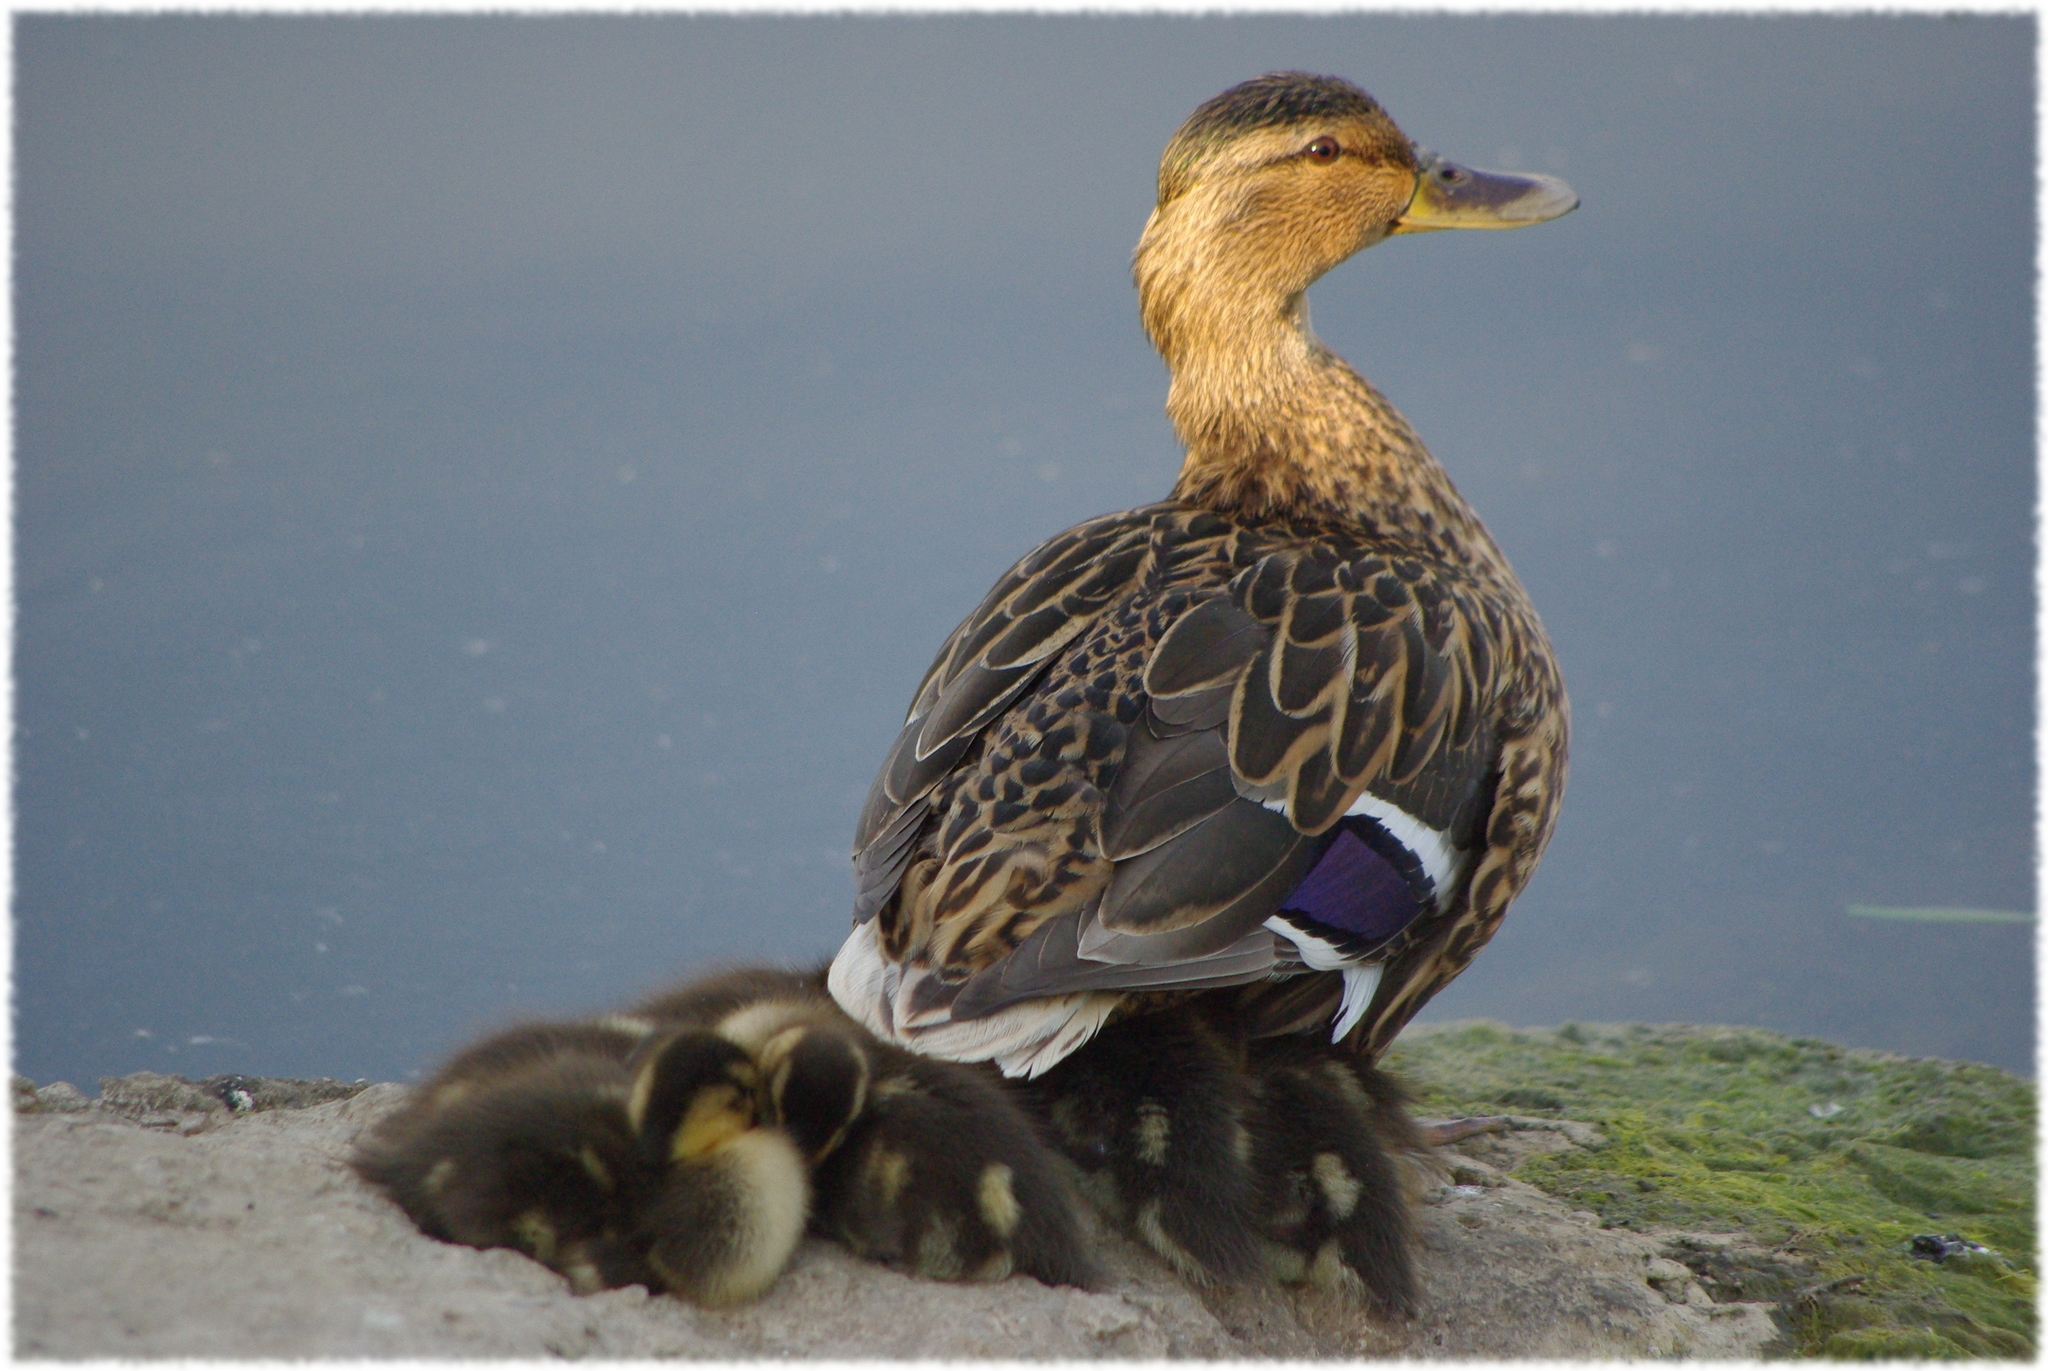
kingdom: Animalia
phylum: Chordata
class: Aves
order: Anseriformes
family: Anatidae
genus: Anas
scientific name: Anas platyrhynchos
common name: Mallard
